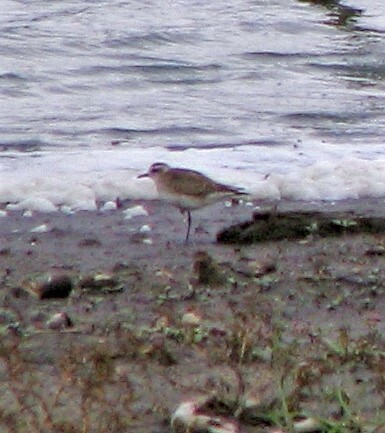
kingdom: Animalia
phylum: Chordata
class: Aves
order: Charadriiformes
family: Charadriidae
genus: Pluvialis
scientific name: Pluvialis dominica
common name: American golden plover
